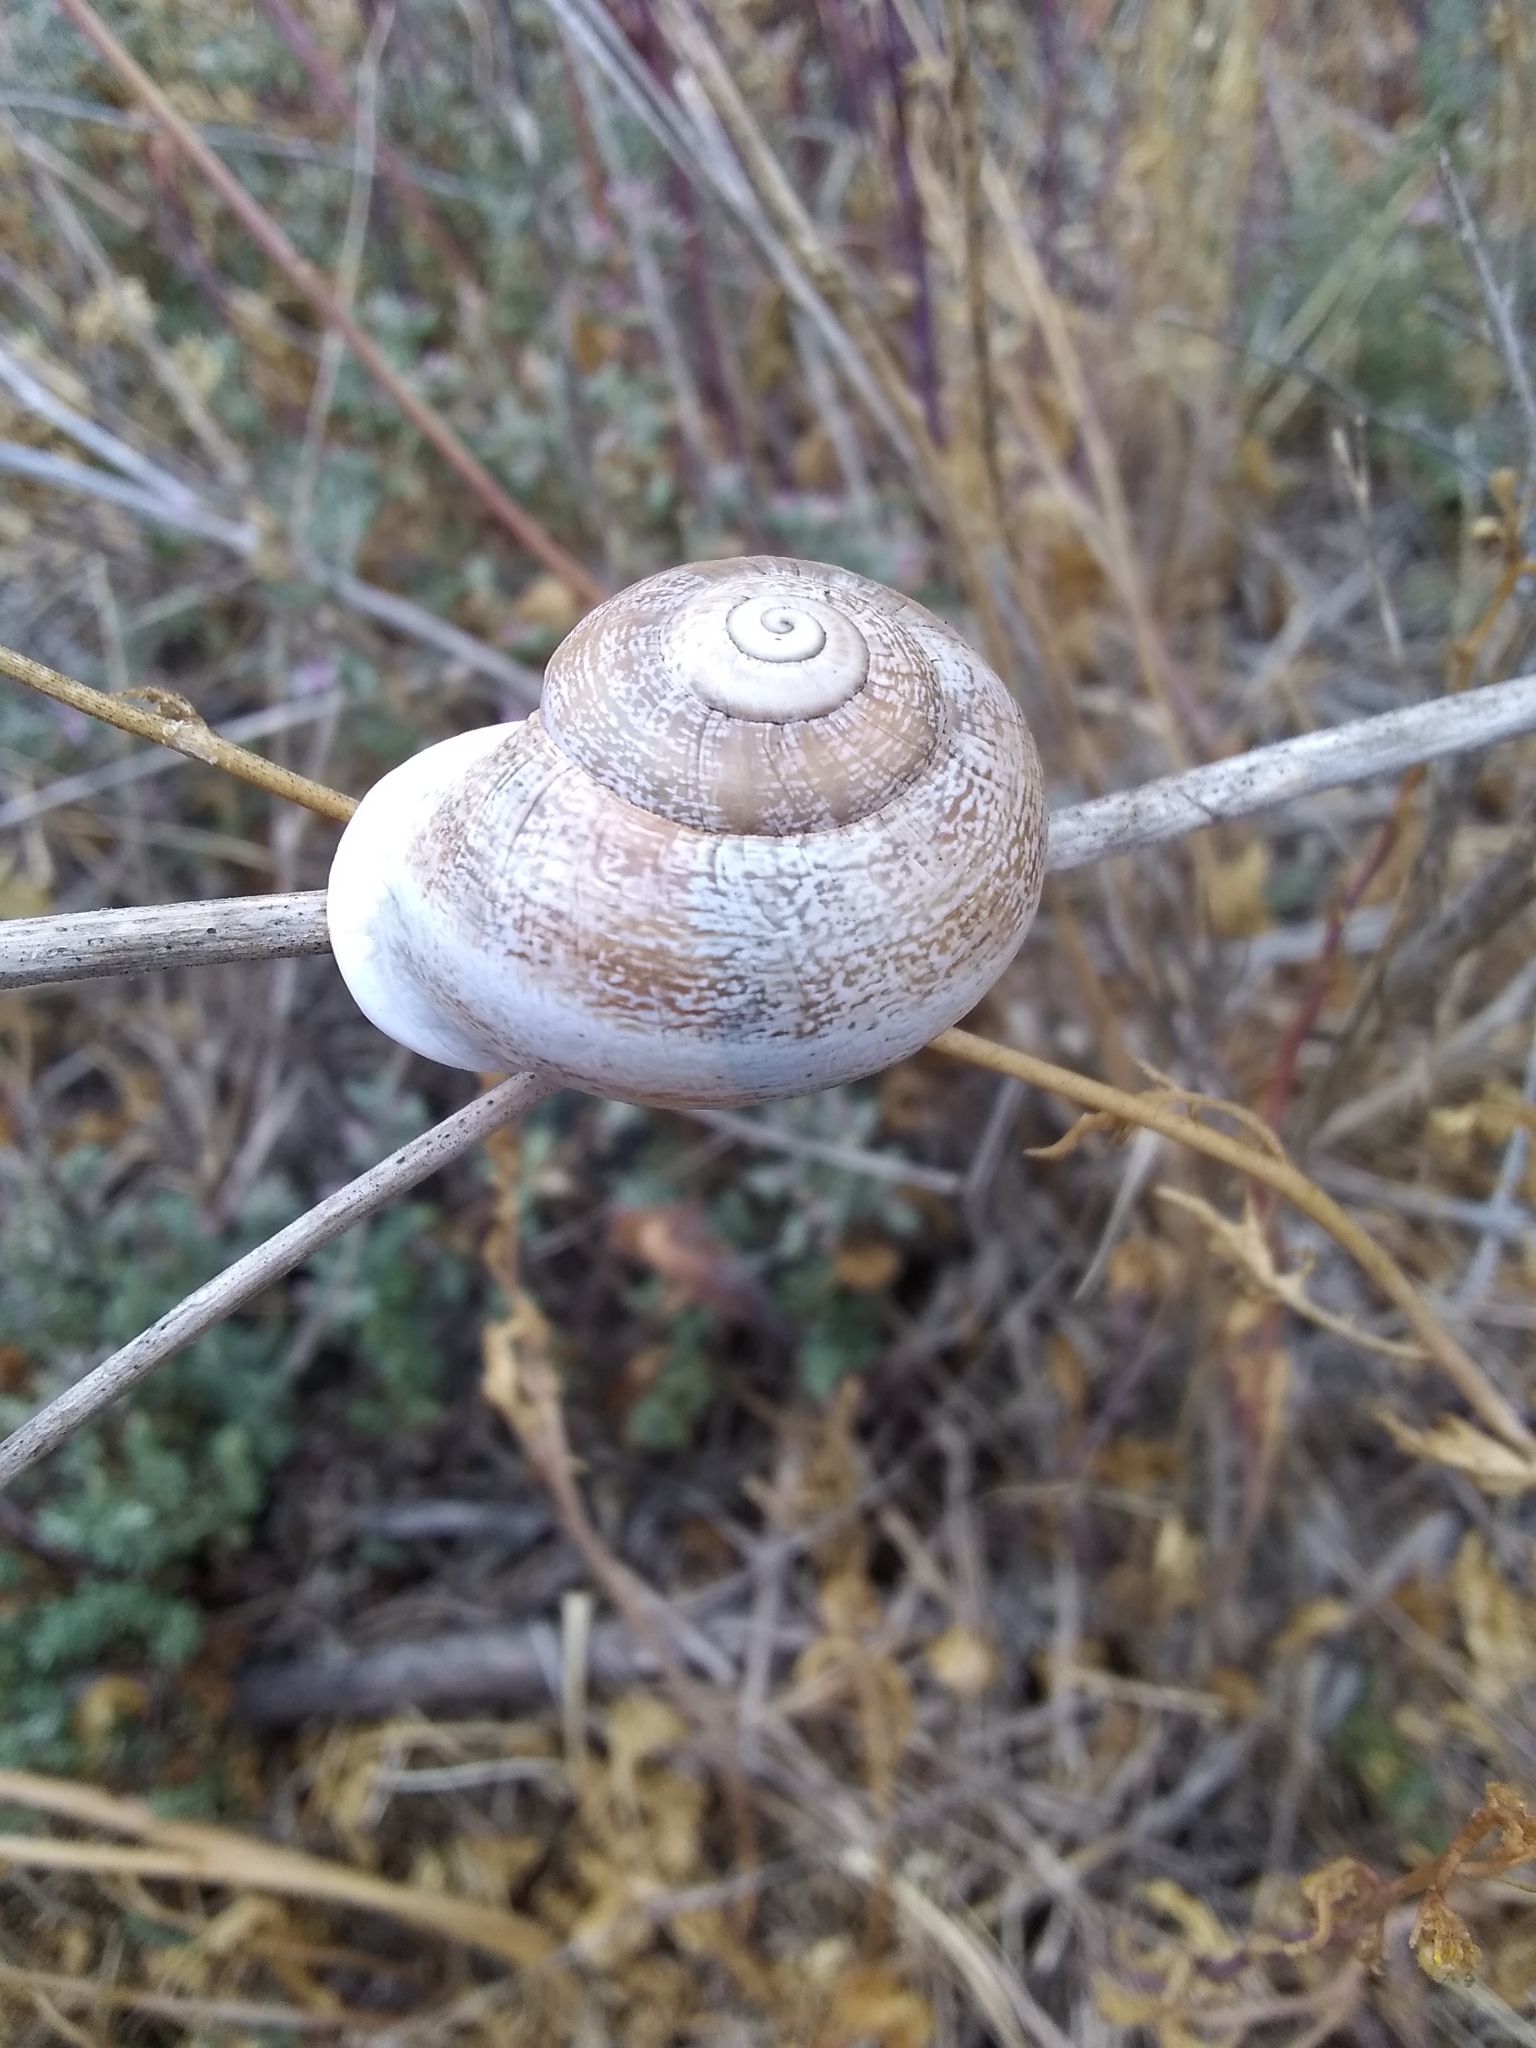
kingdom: Animalia
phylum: Mollusca
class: Gastropoda
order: Stylommatophora
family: Helicidae
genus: Otala
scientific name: Otala lactea
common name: Milk snail
